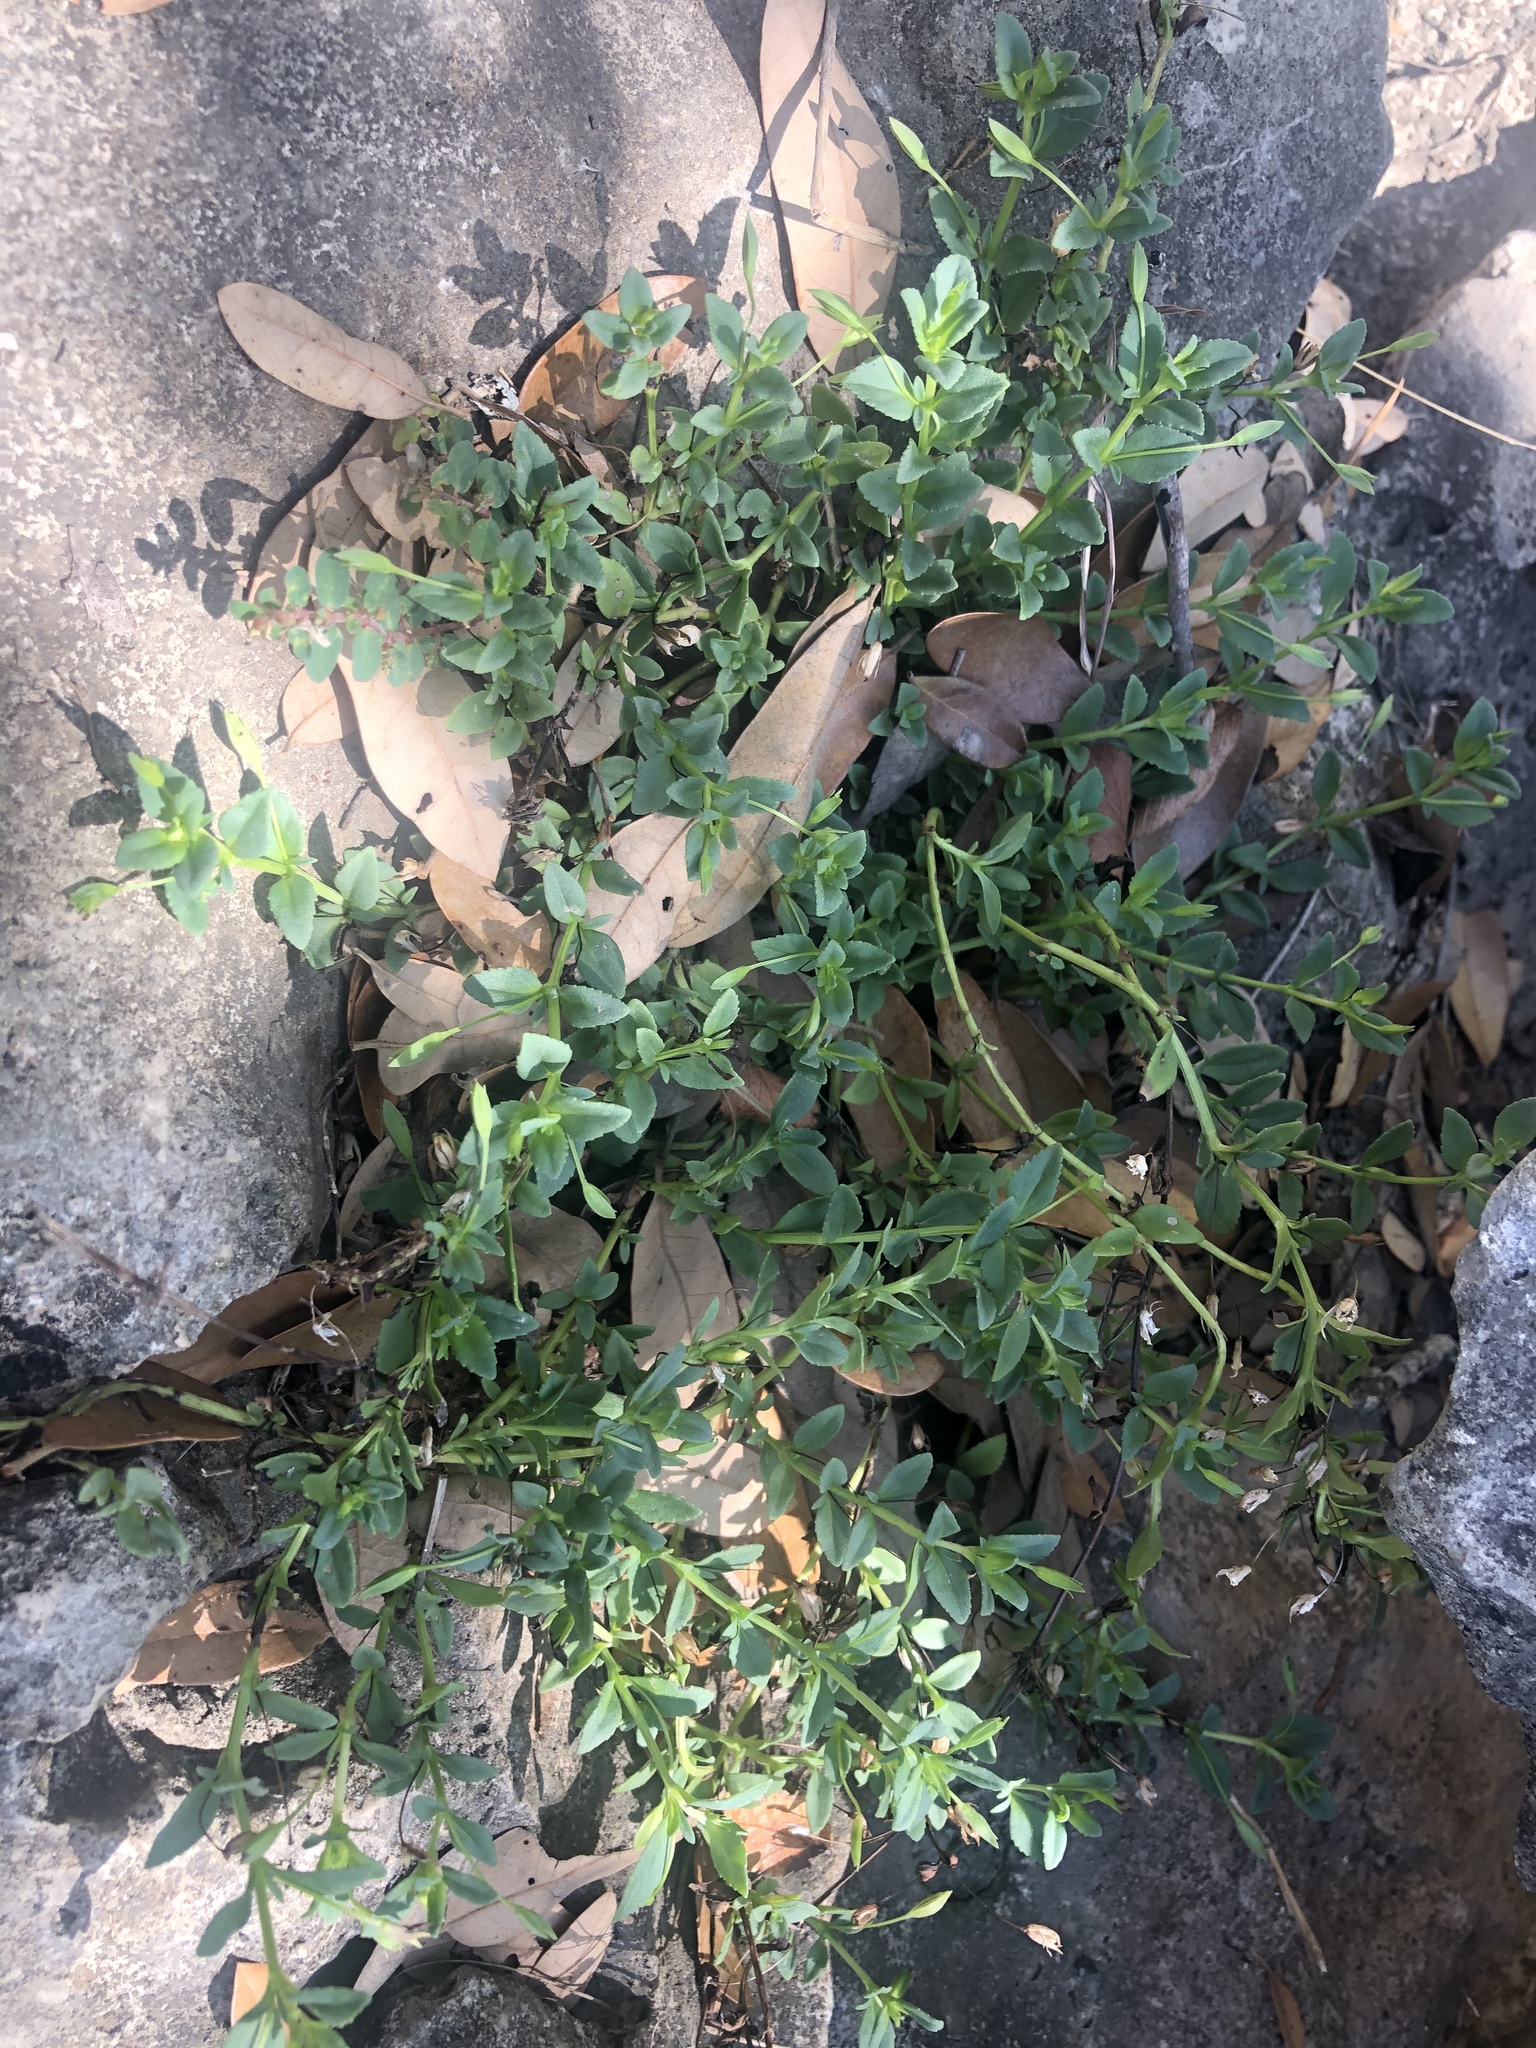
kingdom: Plantae
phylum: Tracheophyta
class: Magnoliopsida
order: Lamiales
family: Plantaginaceae
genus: Mecardonia
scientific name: Mecardonia procumbens
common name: Baby jump-up
